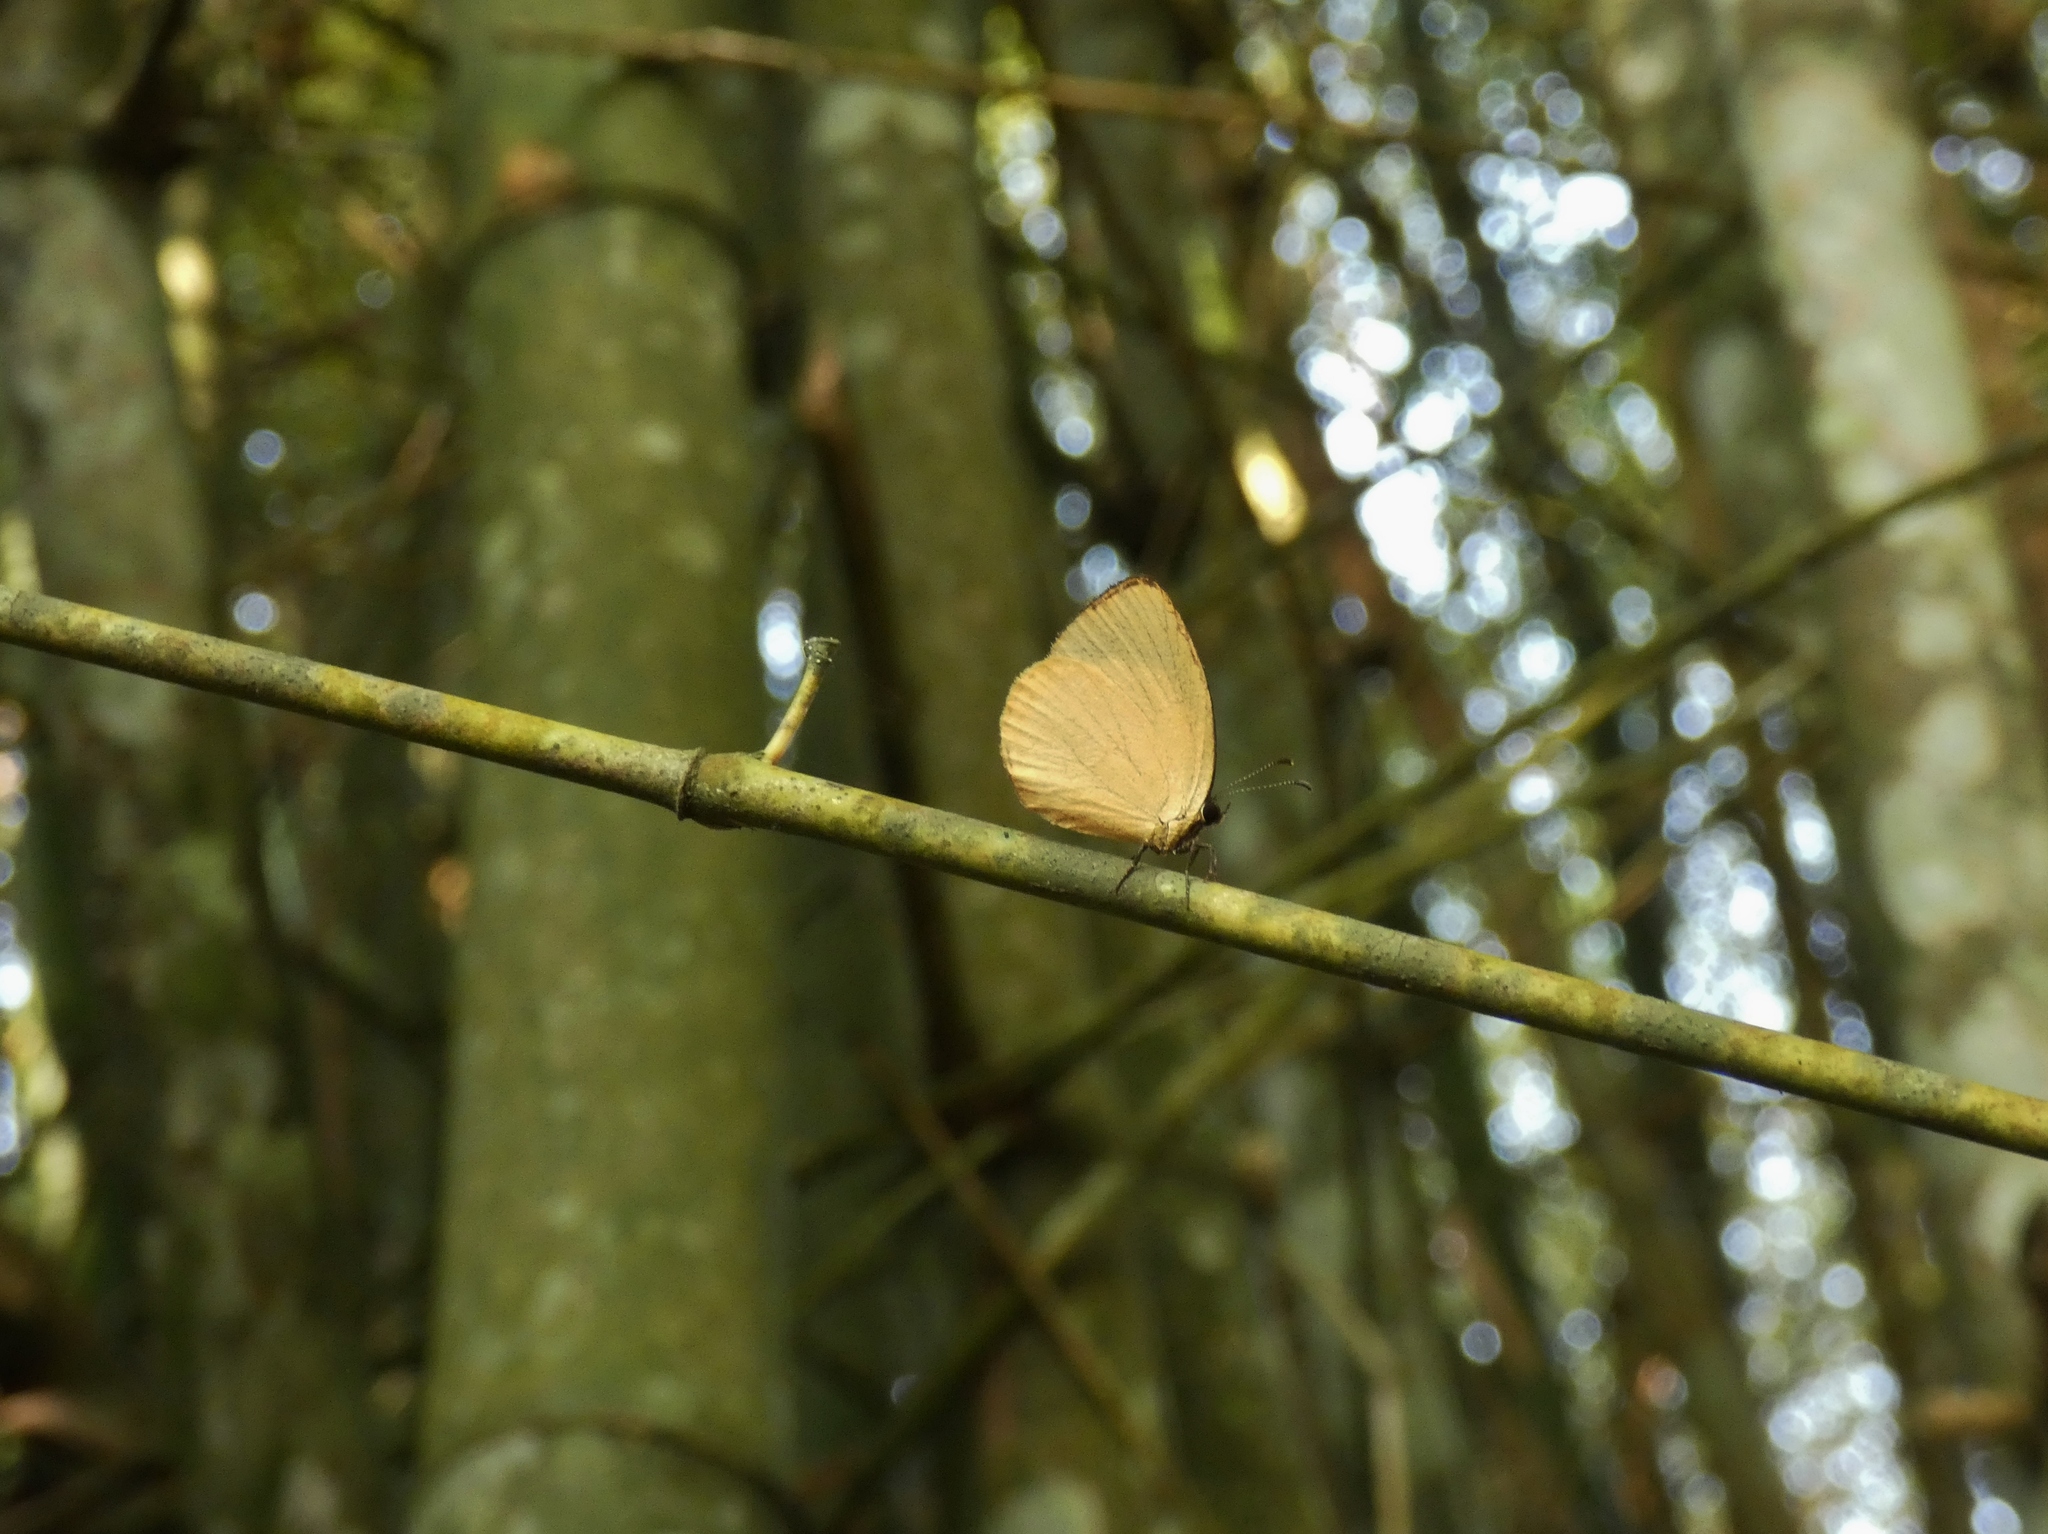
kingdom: Animalia
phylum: Arthropoda
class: Insecta
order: Lepidoptera
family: Lycaenidae
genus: Liptena
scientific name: Liptena xanthostola
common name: Yellow liptena
